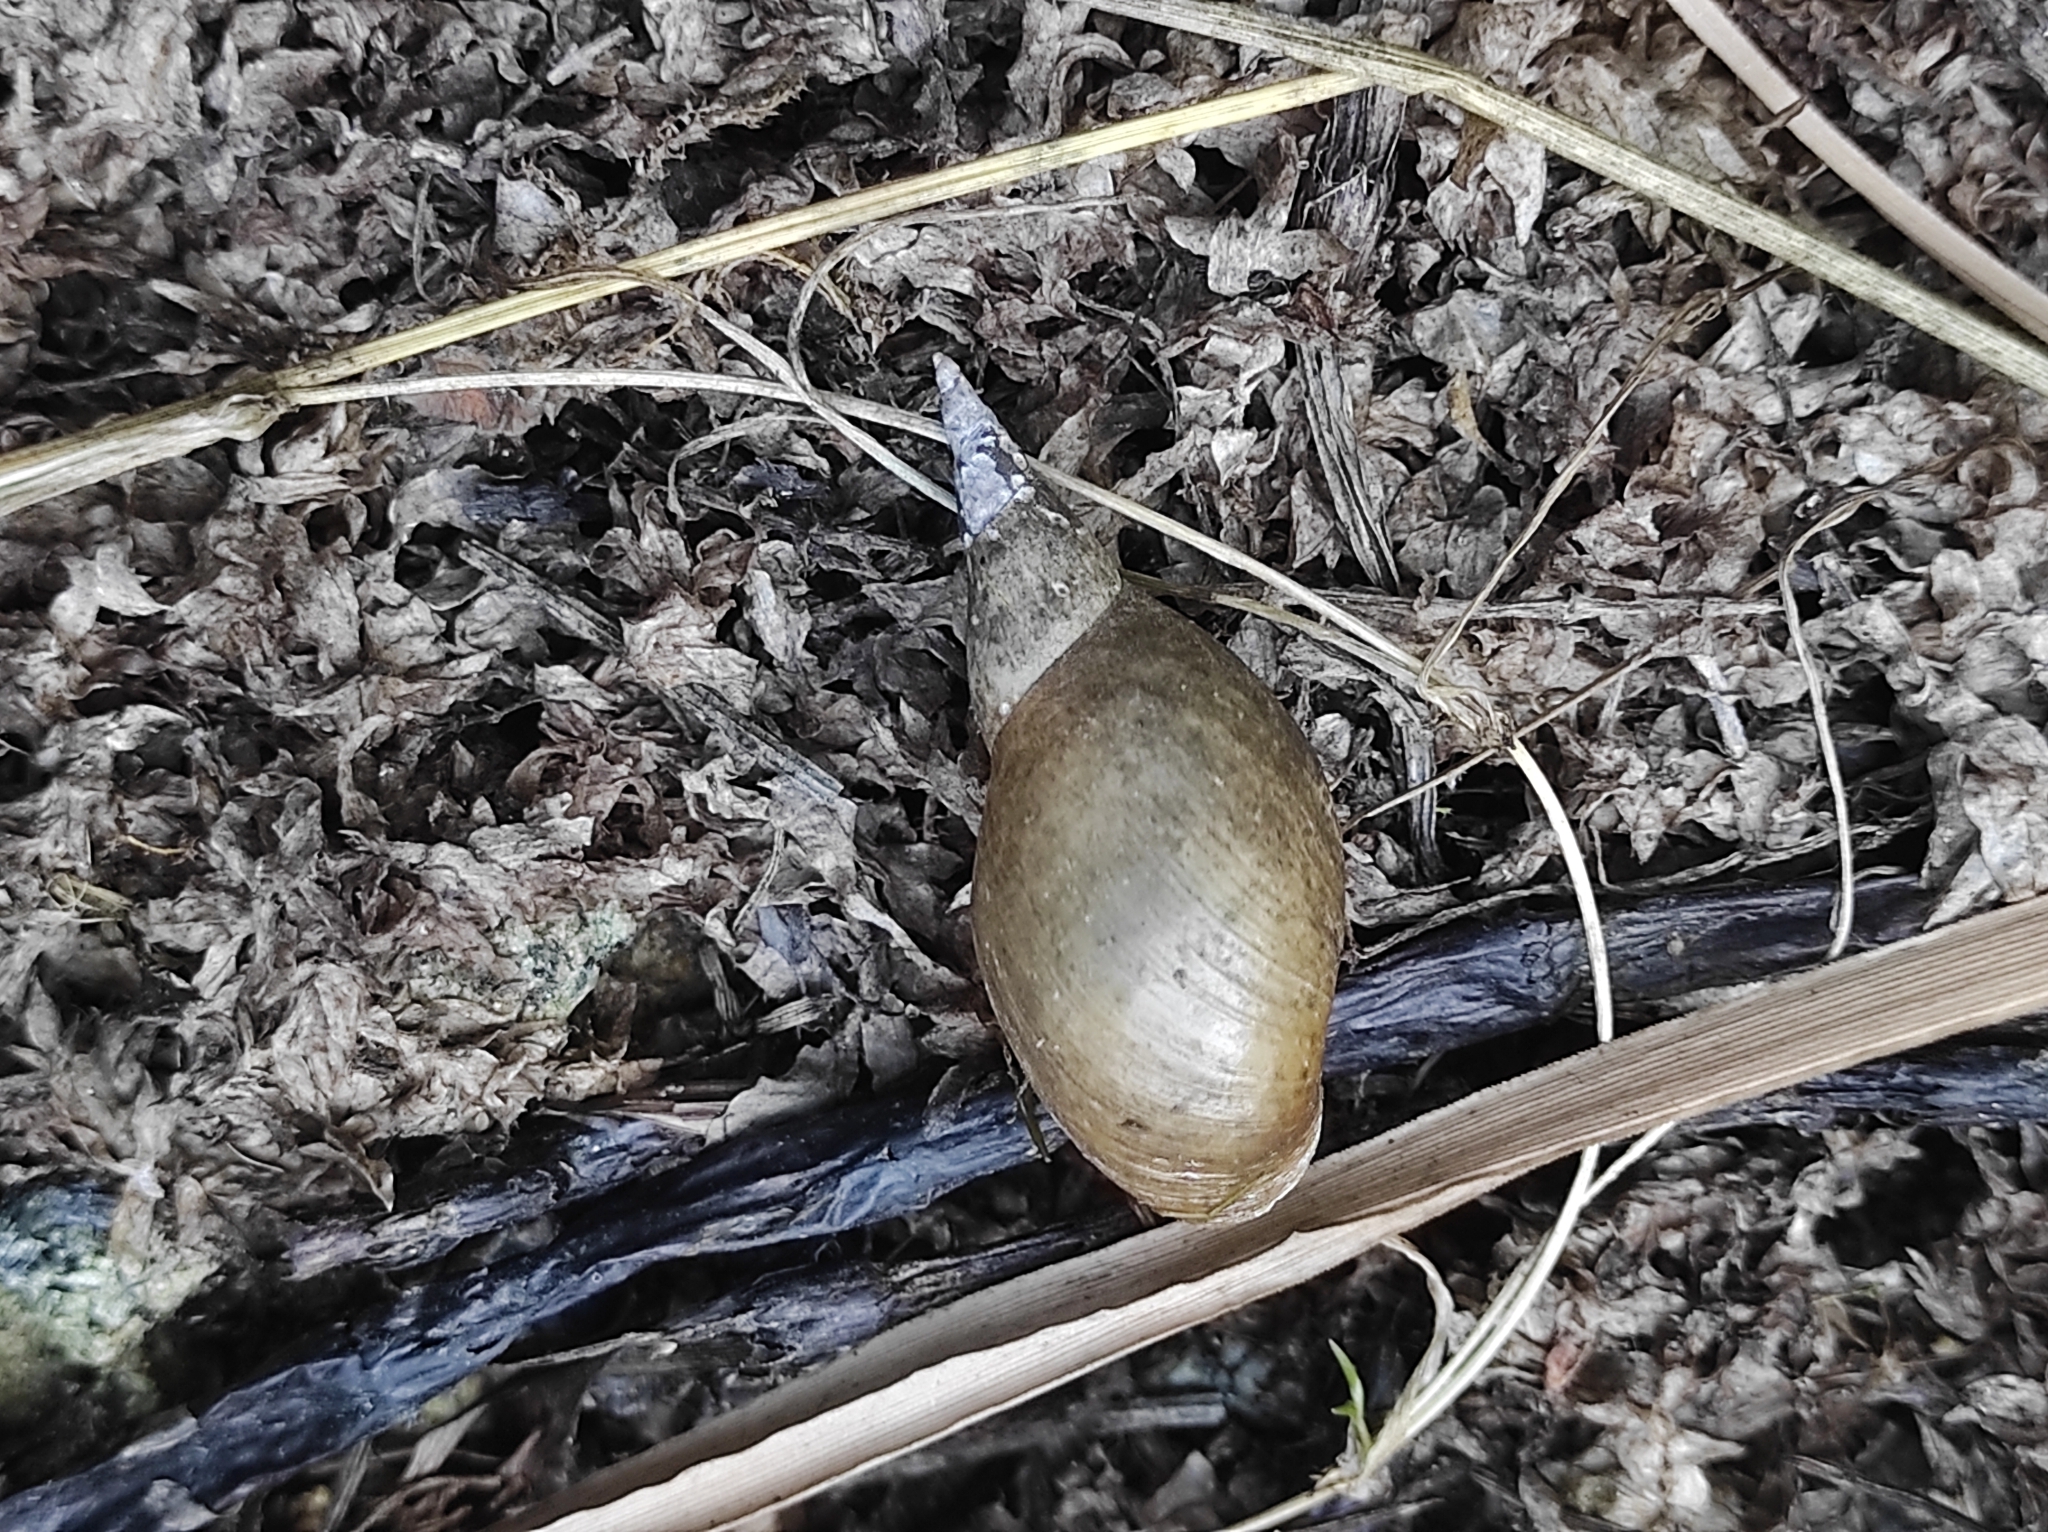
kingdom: Animalia
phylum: Mollusca
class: Gastropoda
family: Lymnaeidae
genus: Lymnaea
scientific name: Lymnaea stagnalis
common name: Great pond snail
